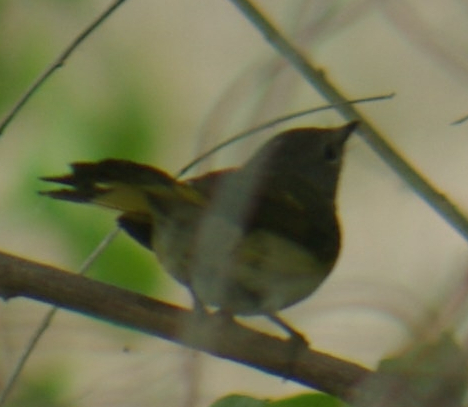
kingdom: Animalia
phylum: Chordata
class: Aves
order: Passeriformes
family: Parulidae
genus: Setophaga
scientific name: Setophaga ruticilla
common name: American redstart
